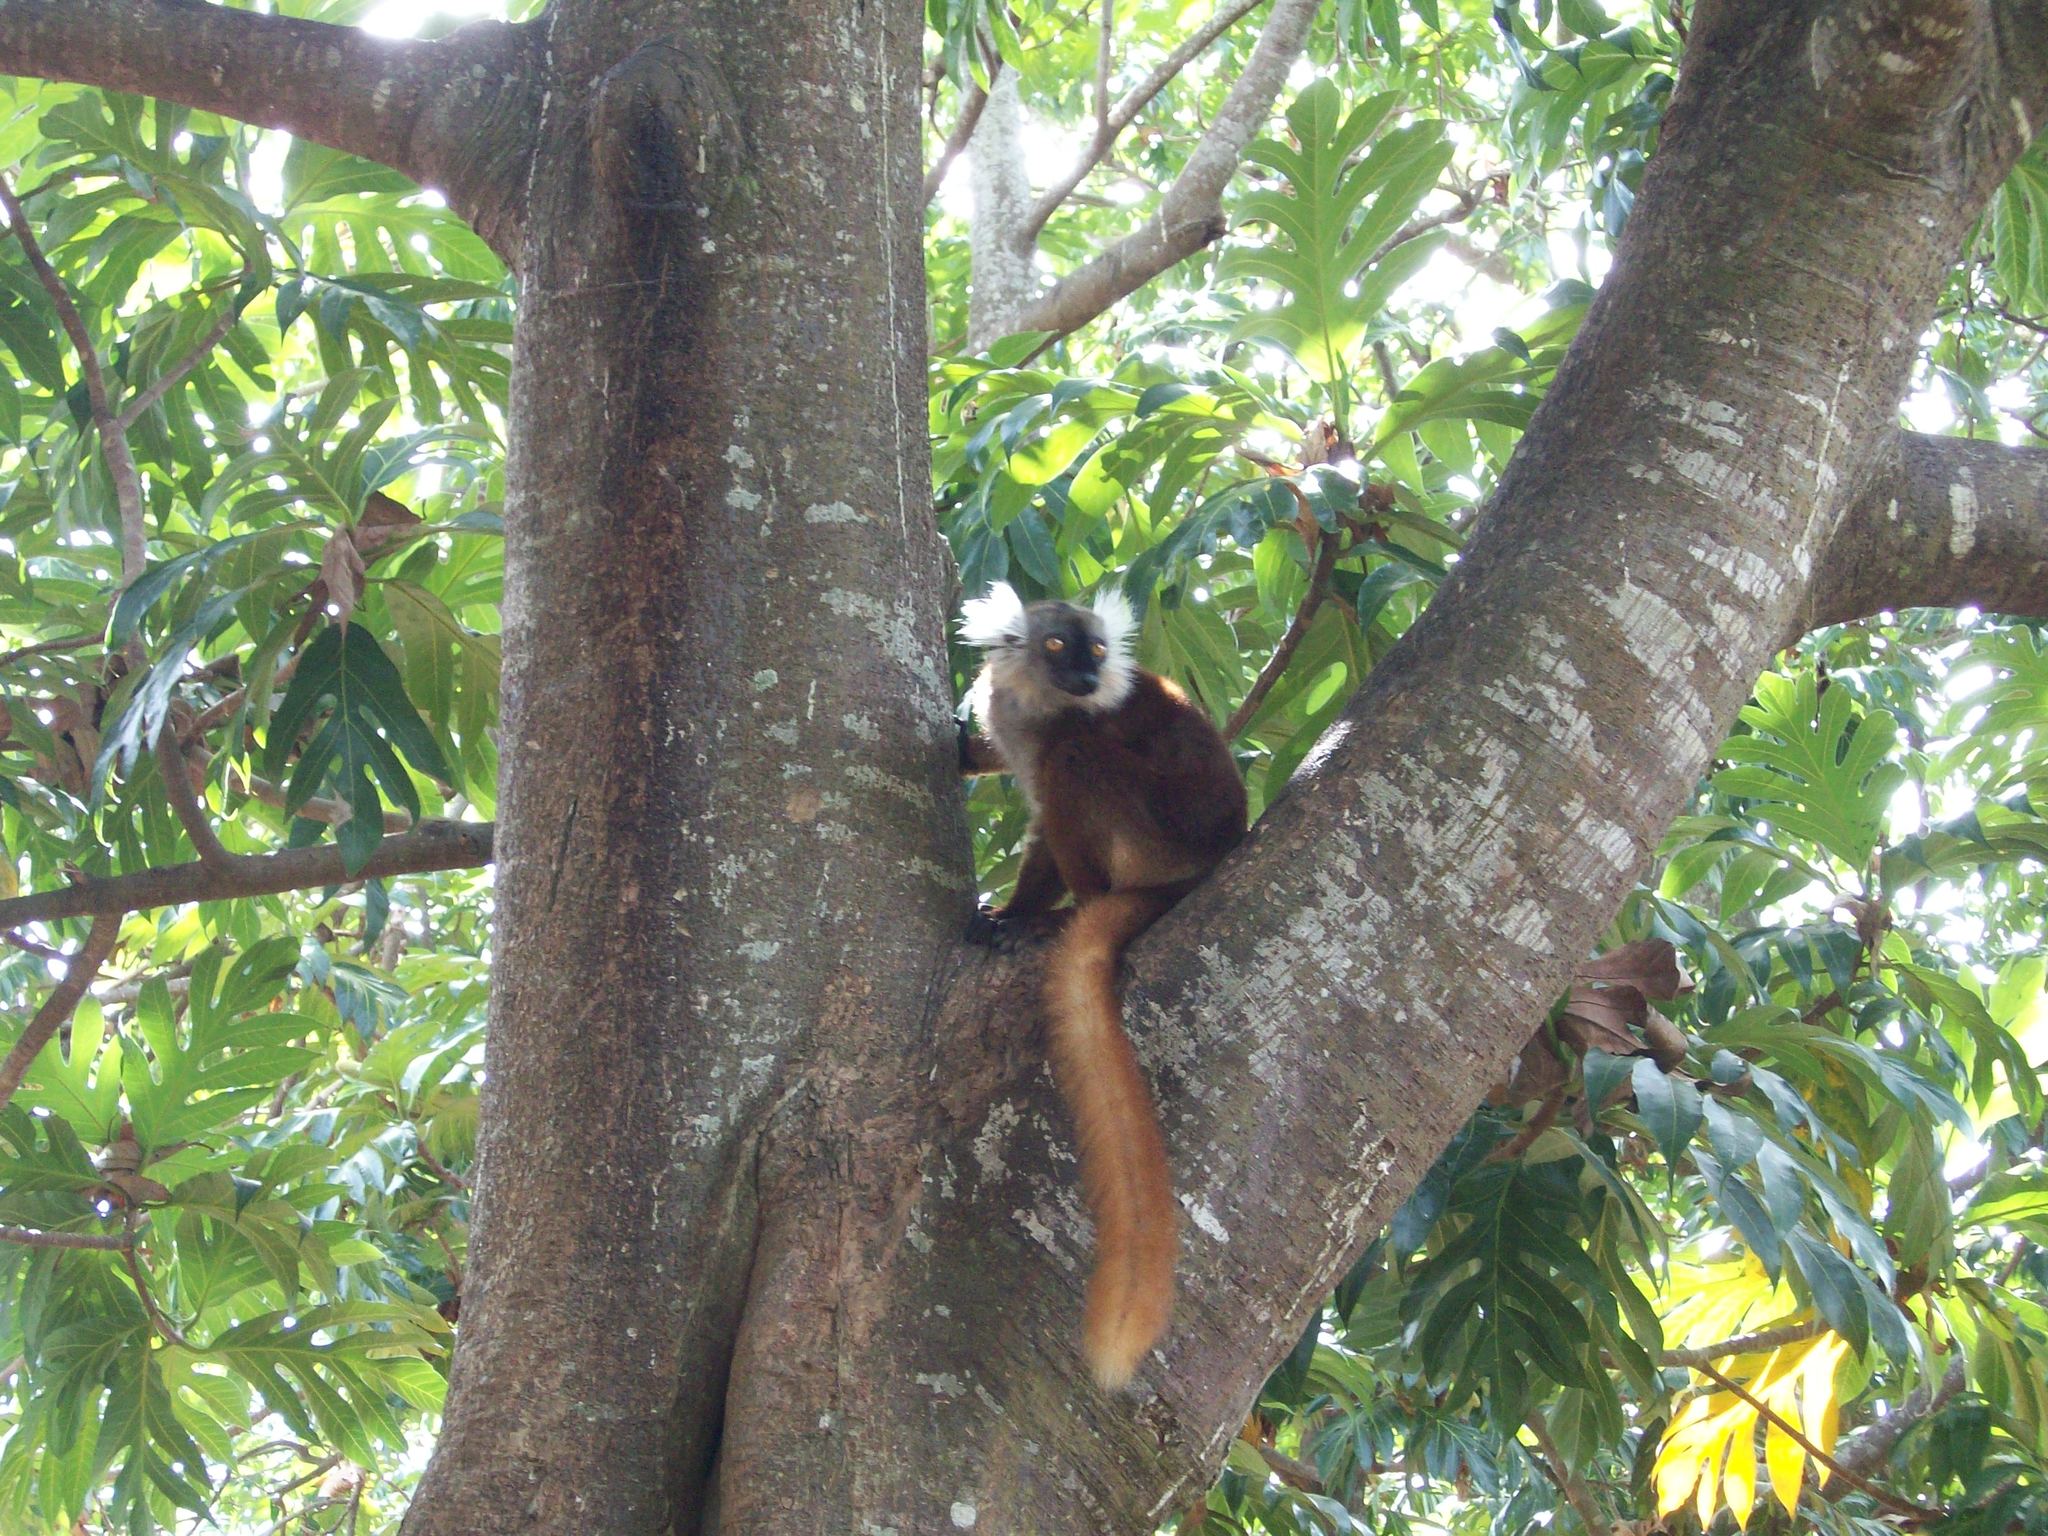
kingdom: Animalia
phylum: Chordata
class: Mammalia
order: Primates
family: Lemuridae
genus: Eulemur
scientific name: Eulemur macaco
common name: Black lemur
